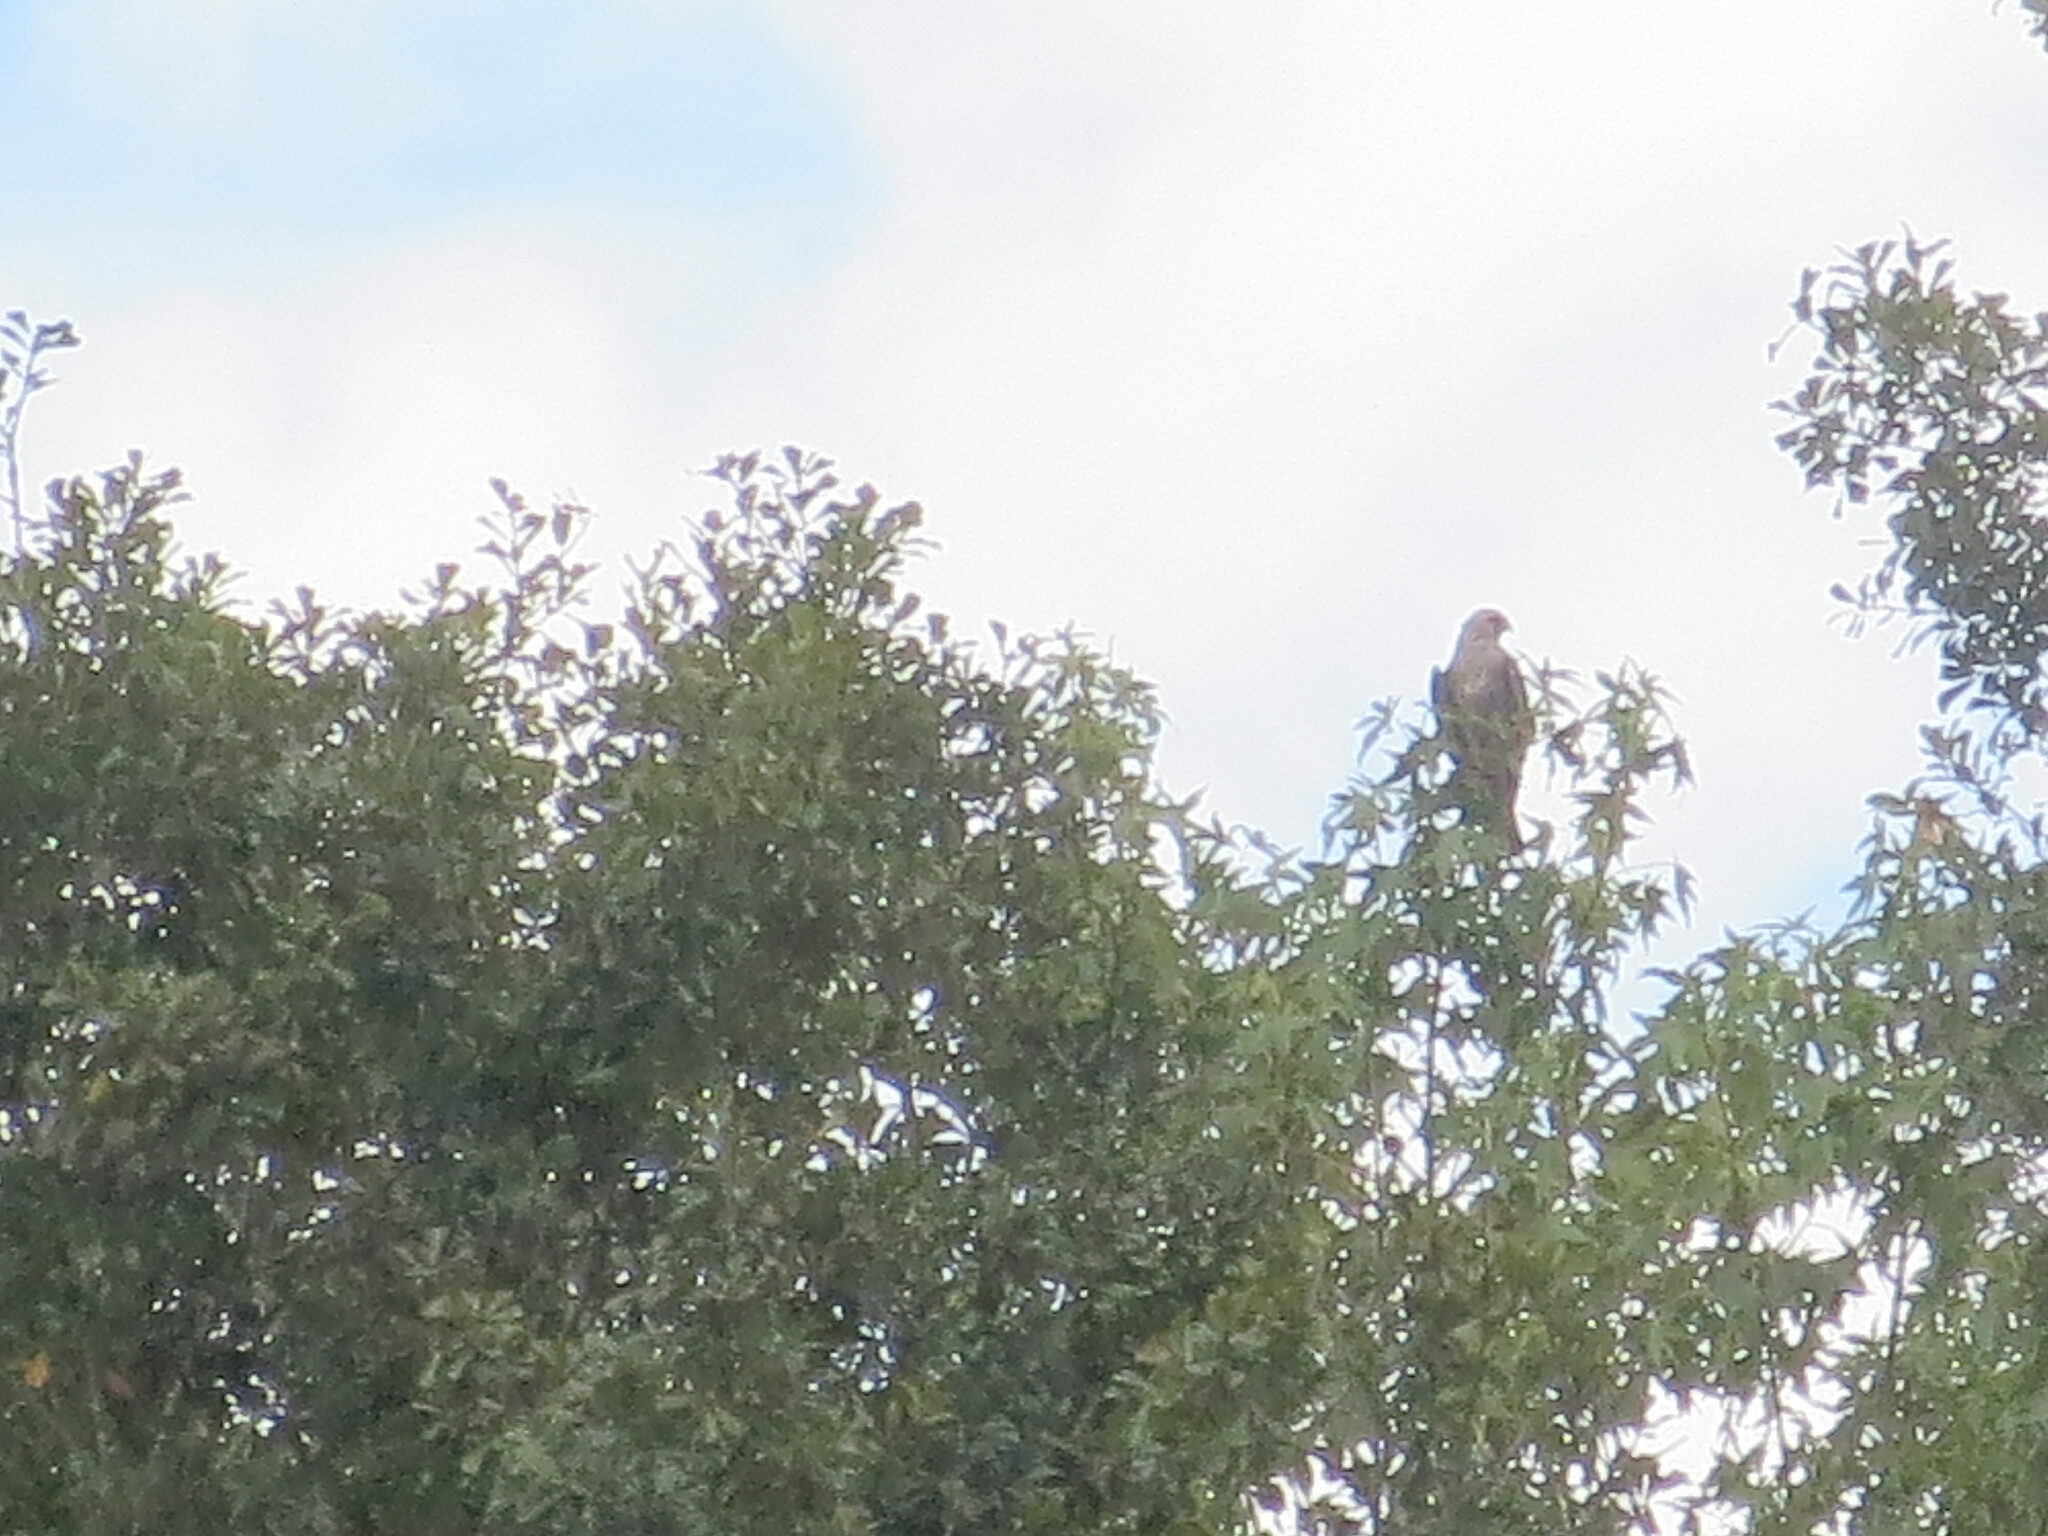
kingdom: Animalia
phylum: Chordata
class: Aves
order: Accipitriformes
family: Accipitridae
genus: Ictinia
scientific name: Ictinia mississippiensis
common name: Mississippi kite
